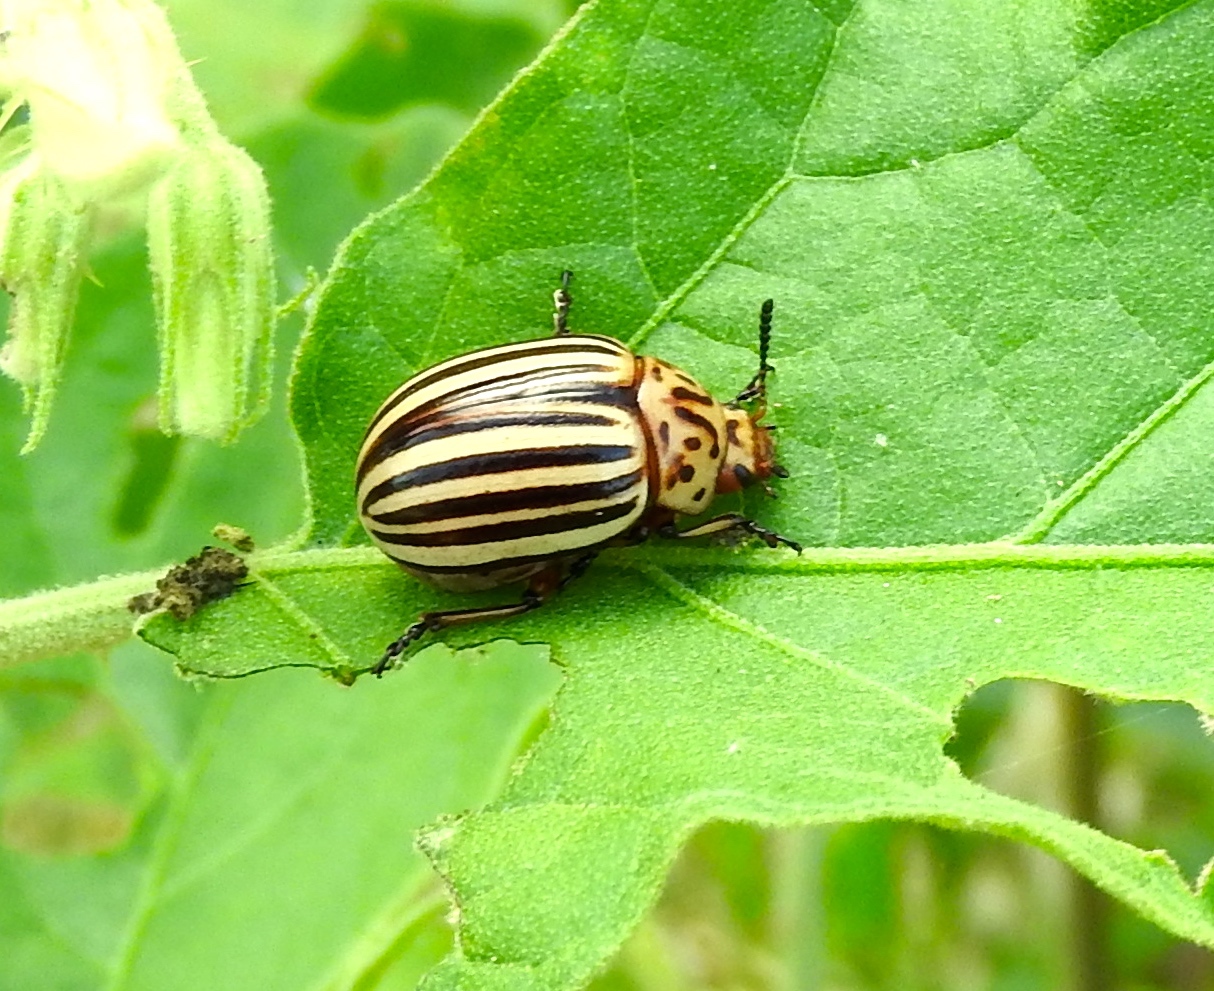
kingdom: Animalia
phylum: Arthropoda
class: Insecta
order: Coleoptera
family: Chrysomelidae
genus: Leptinotarsa
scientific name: Leptinotarsa decemlineata
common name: Colorado potato beetle
